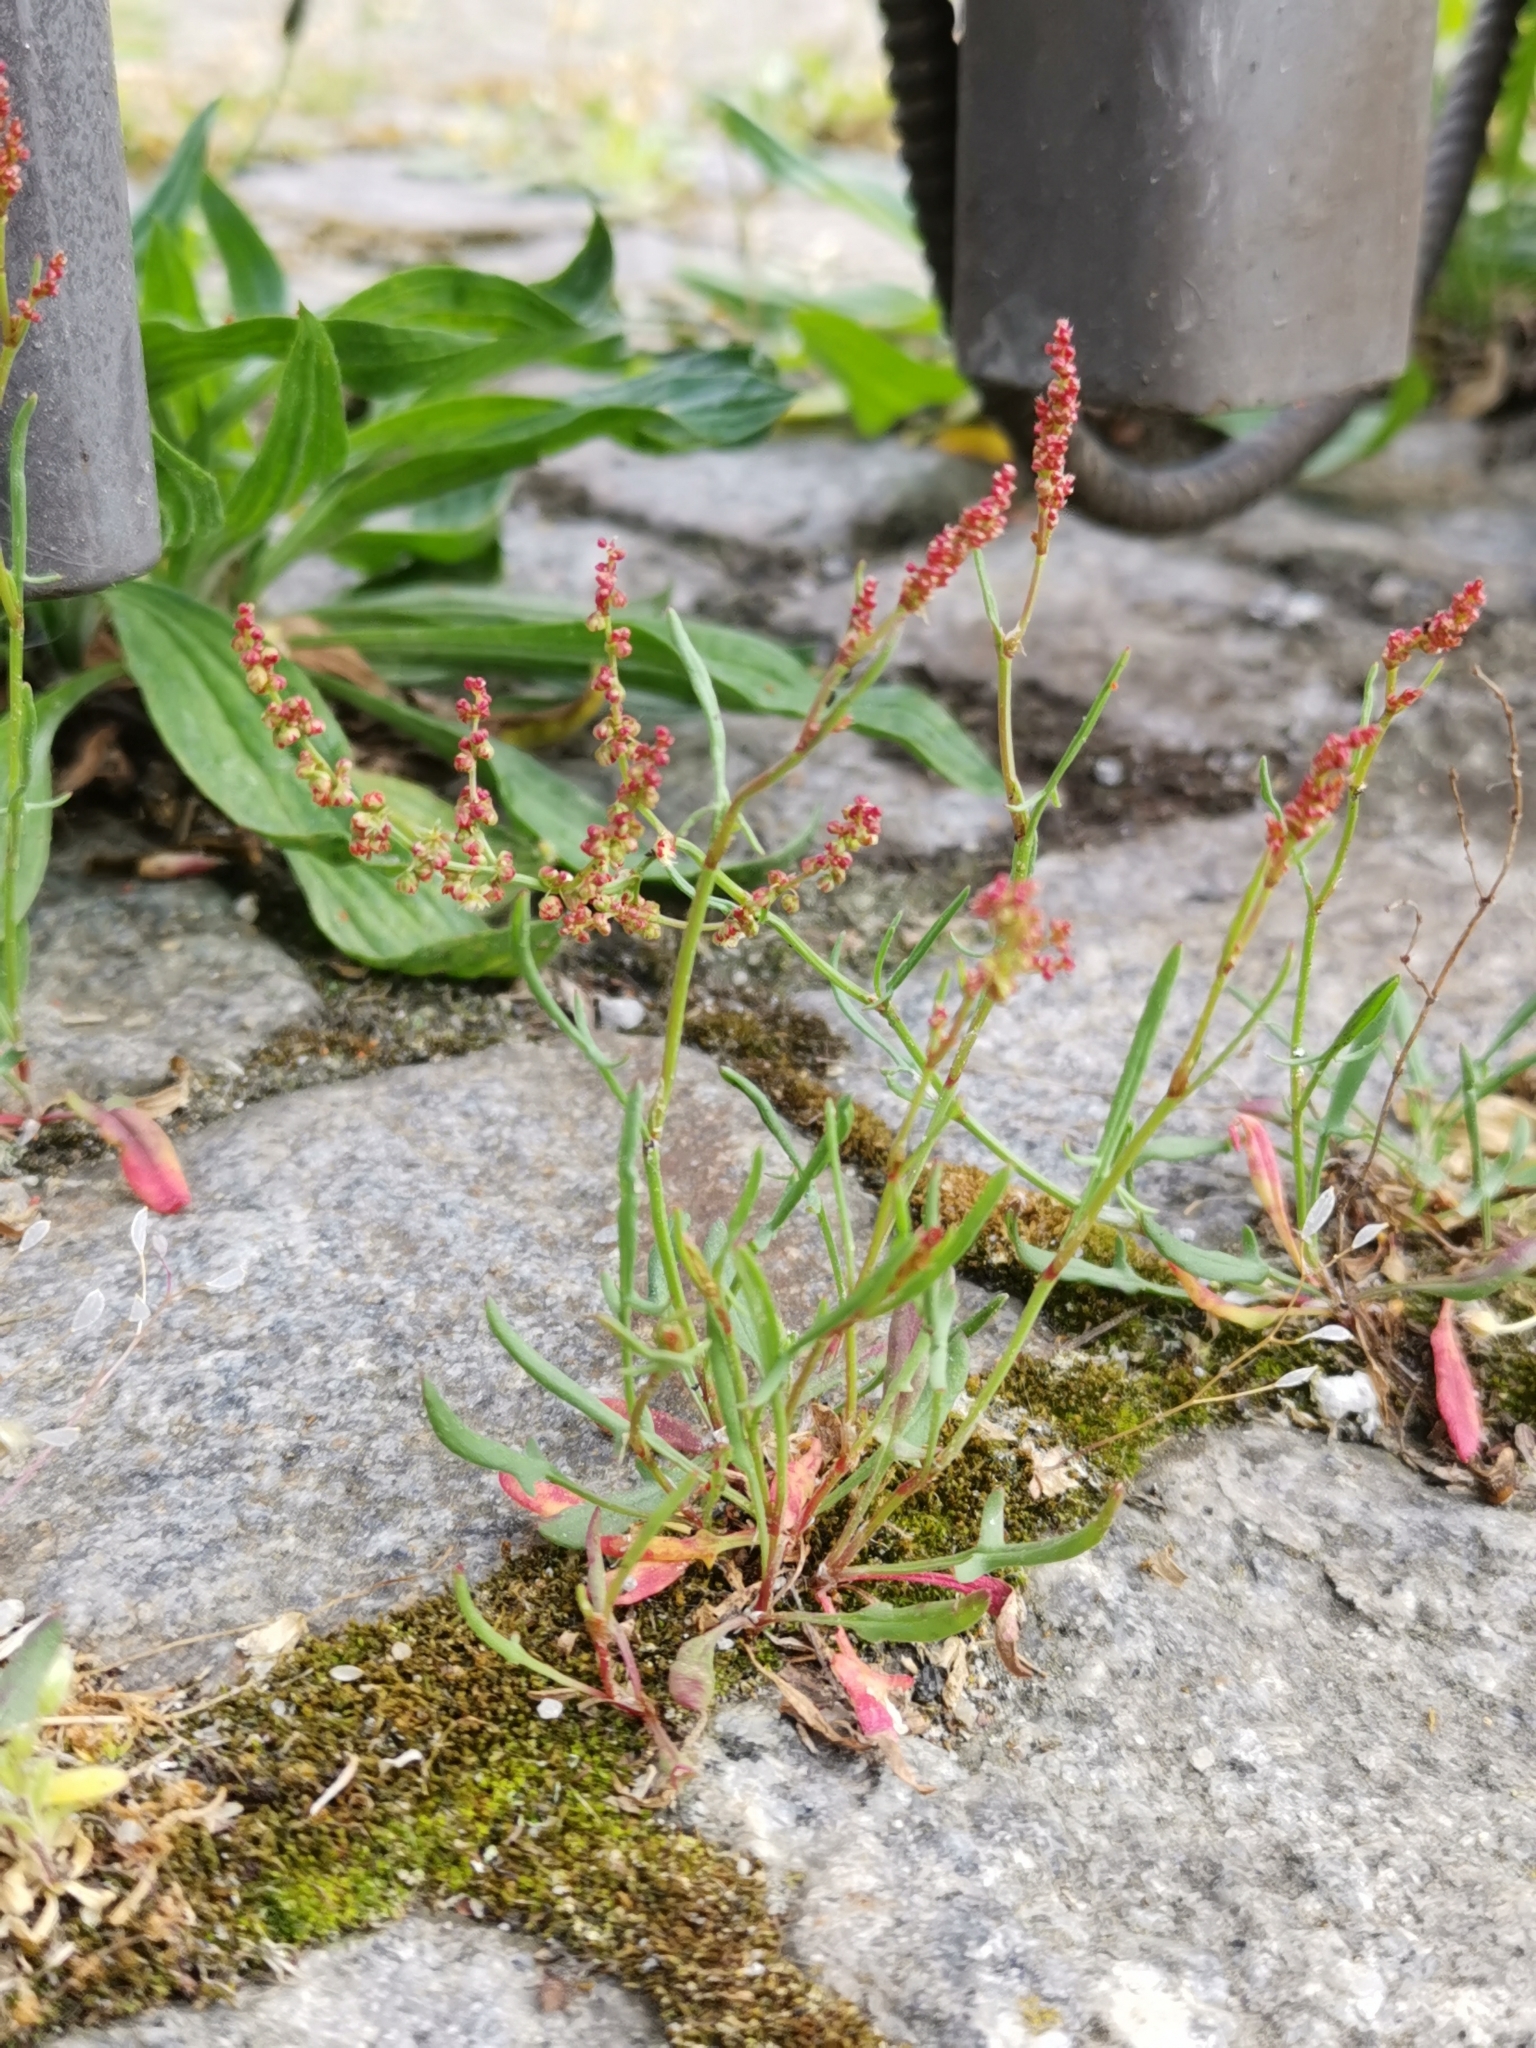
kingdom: Plantae
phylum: Tracheophyta
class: Magnoliopsida
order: Caryophyllales
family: Polygonaceae
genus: Rumex
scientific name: Rumex acetosella
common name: Common sheep sorrel
